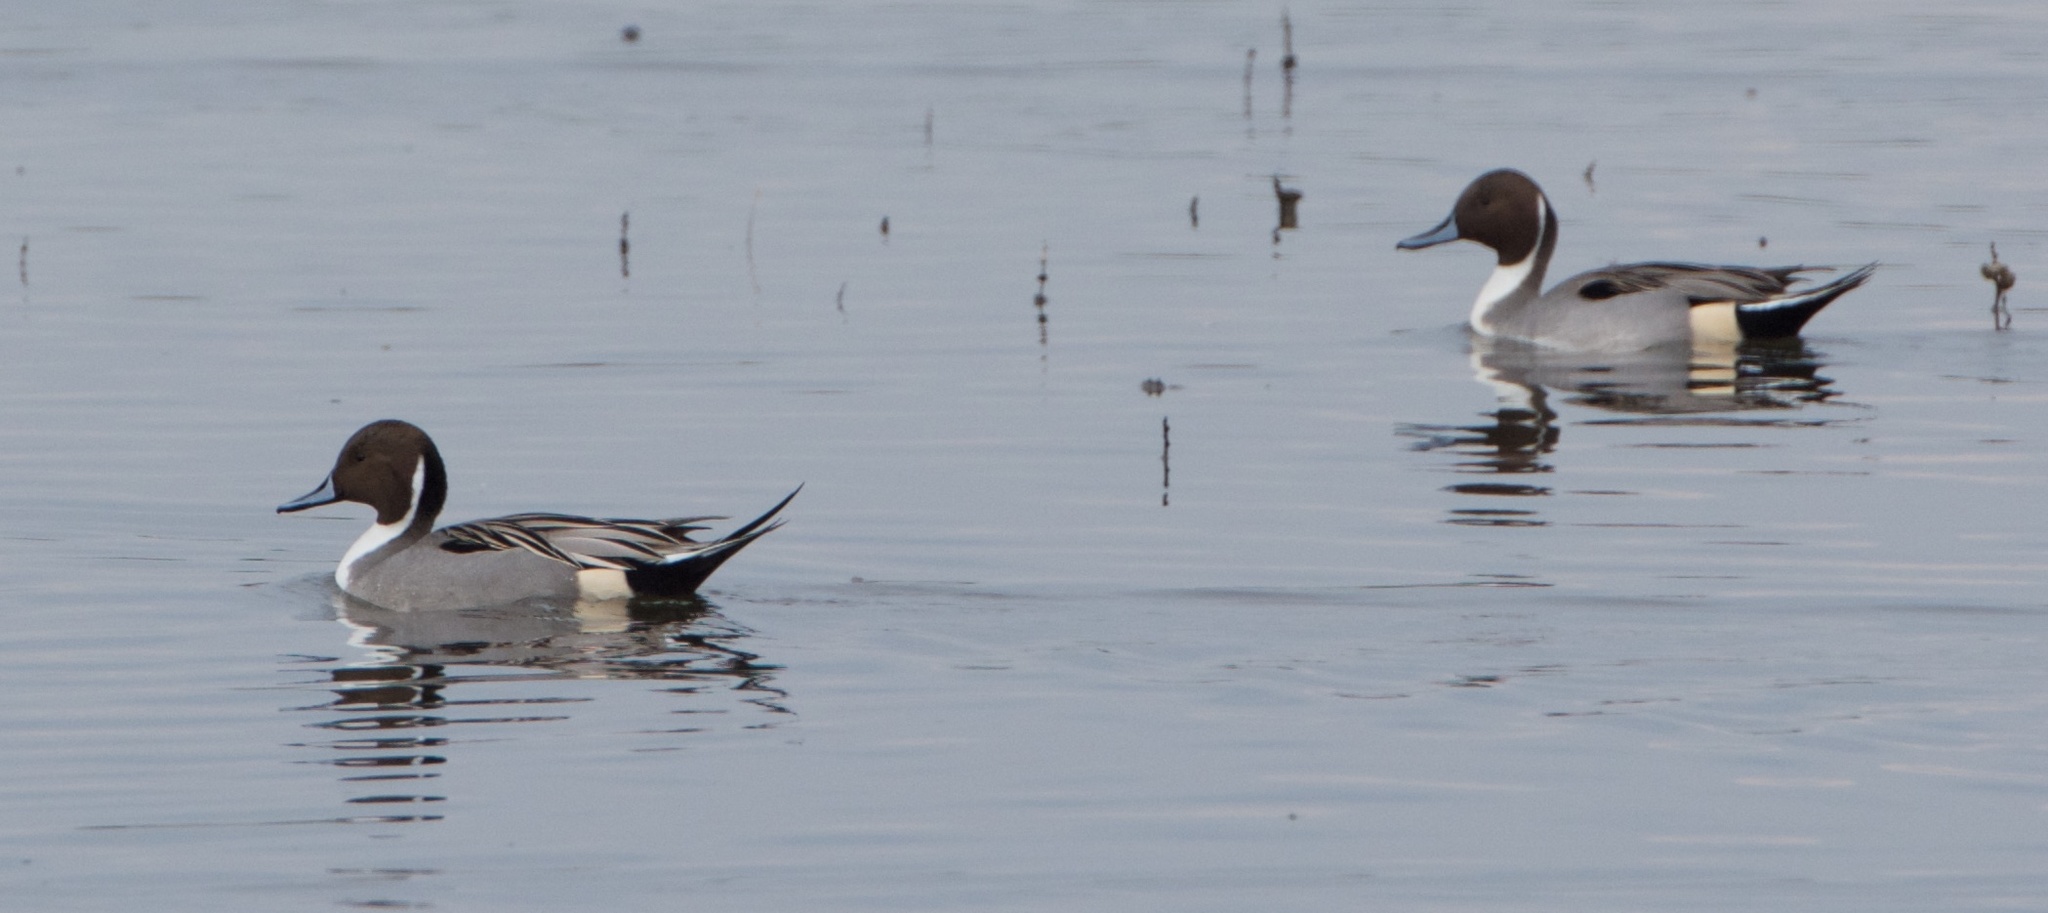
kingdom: Animalia
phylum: Chordata
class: Aves
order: Anseriformes
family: Anatidae
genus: Anas
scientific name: Anas acuta
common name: Northern pintail
